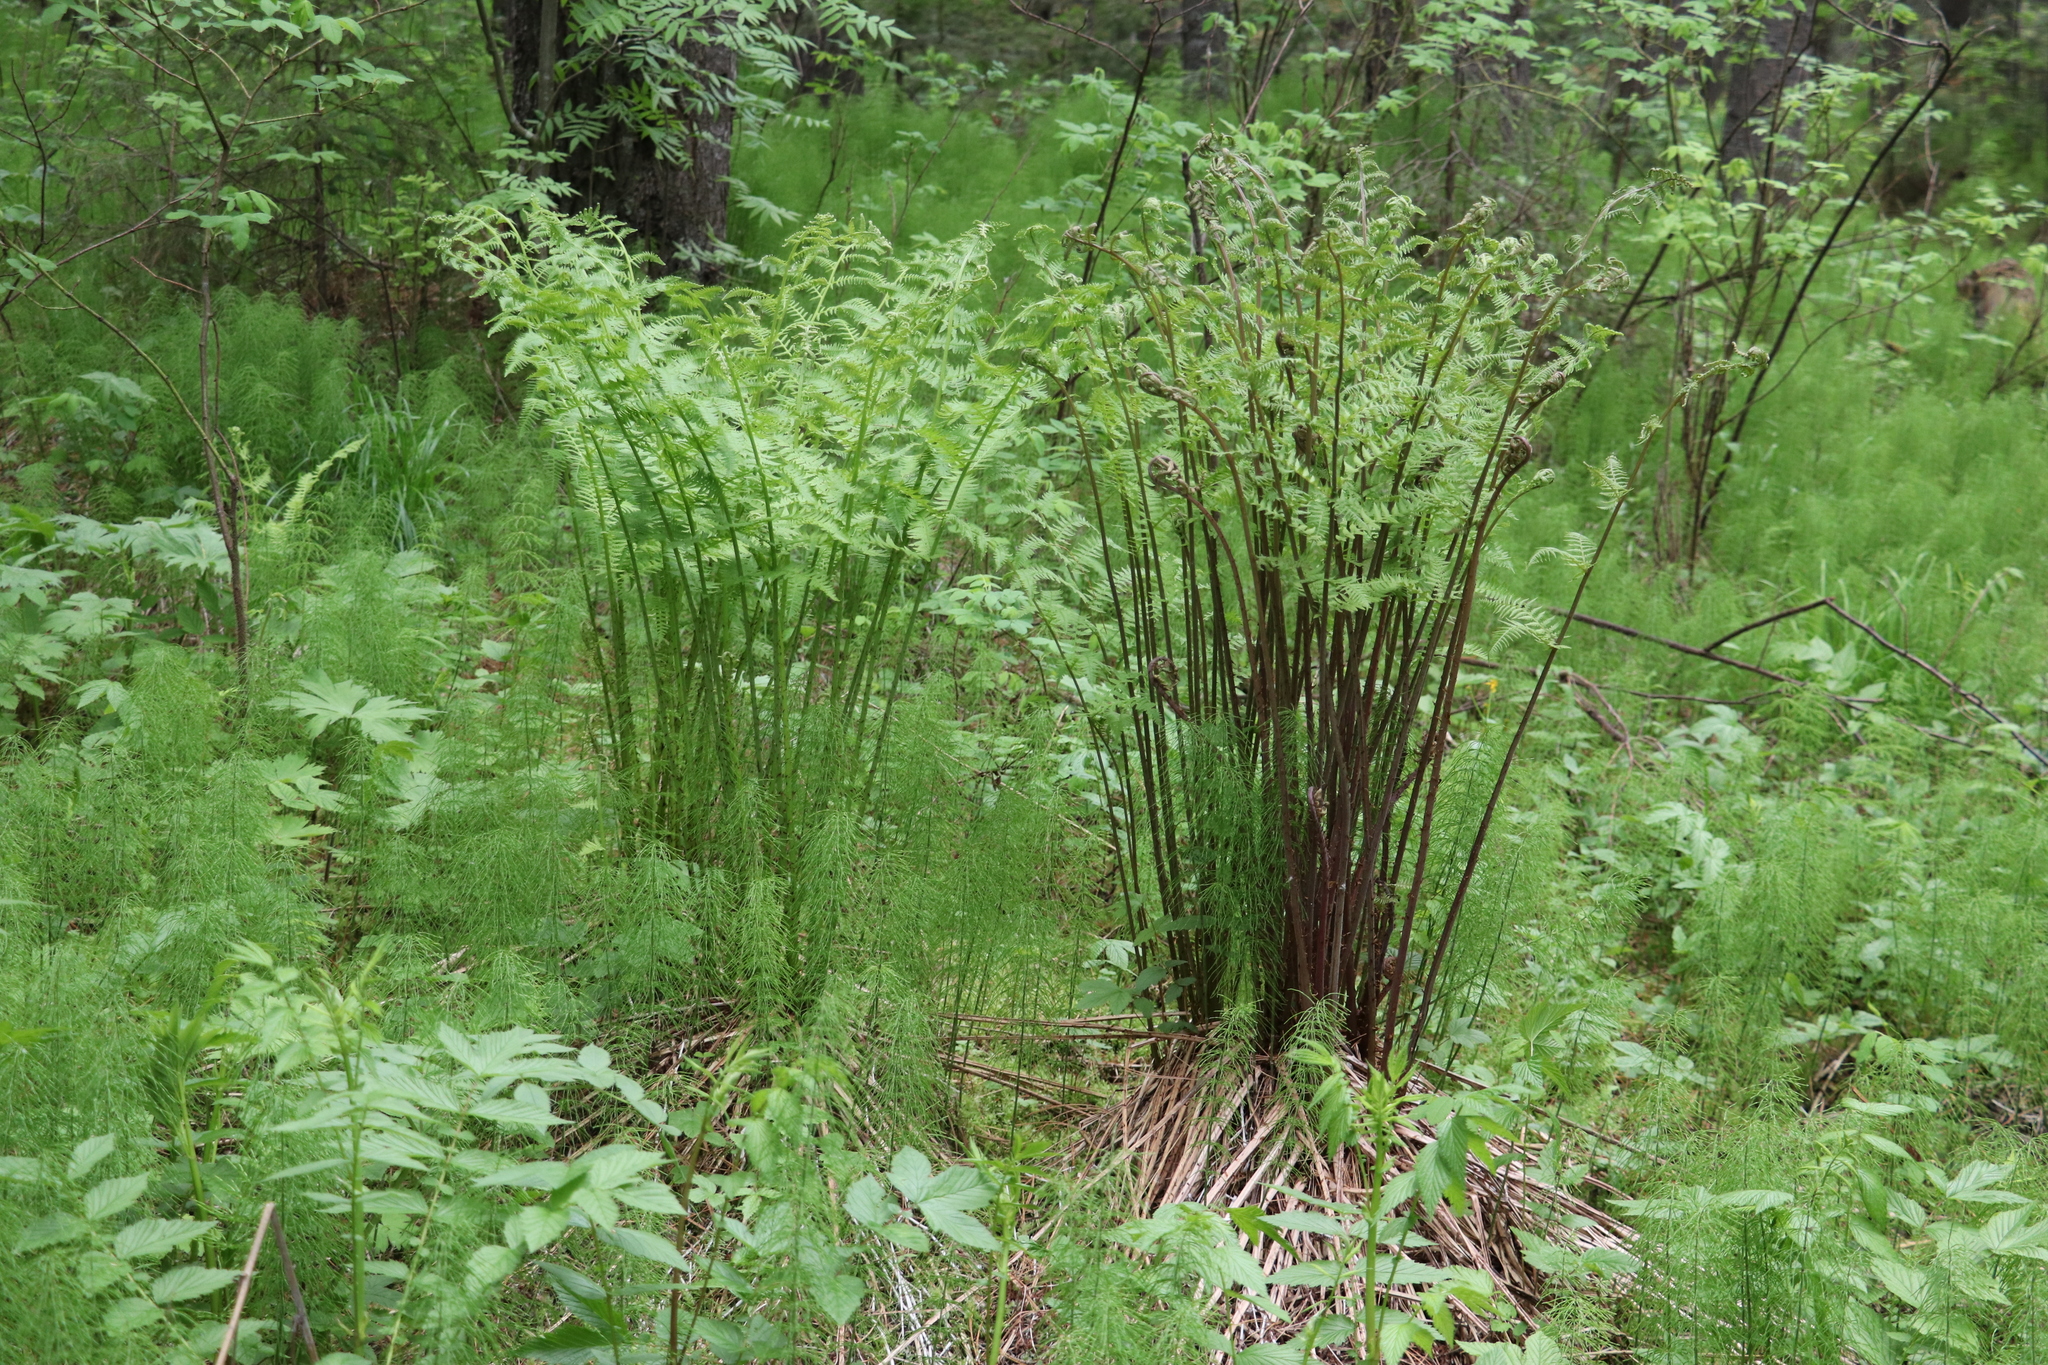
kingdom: Plantae
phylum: Tracheophyta
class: Polypodiopsida
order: Polypodiales
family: Athyriaceae
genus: Athyrium
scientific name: Athyrium filix-femina
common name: Lady fern
